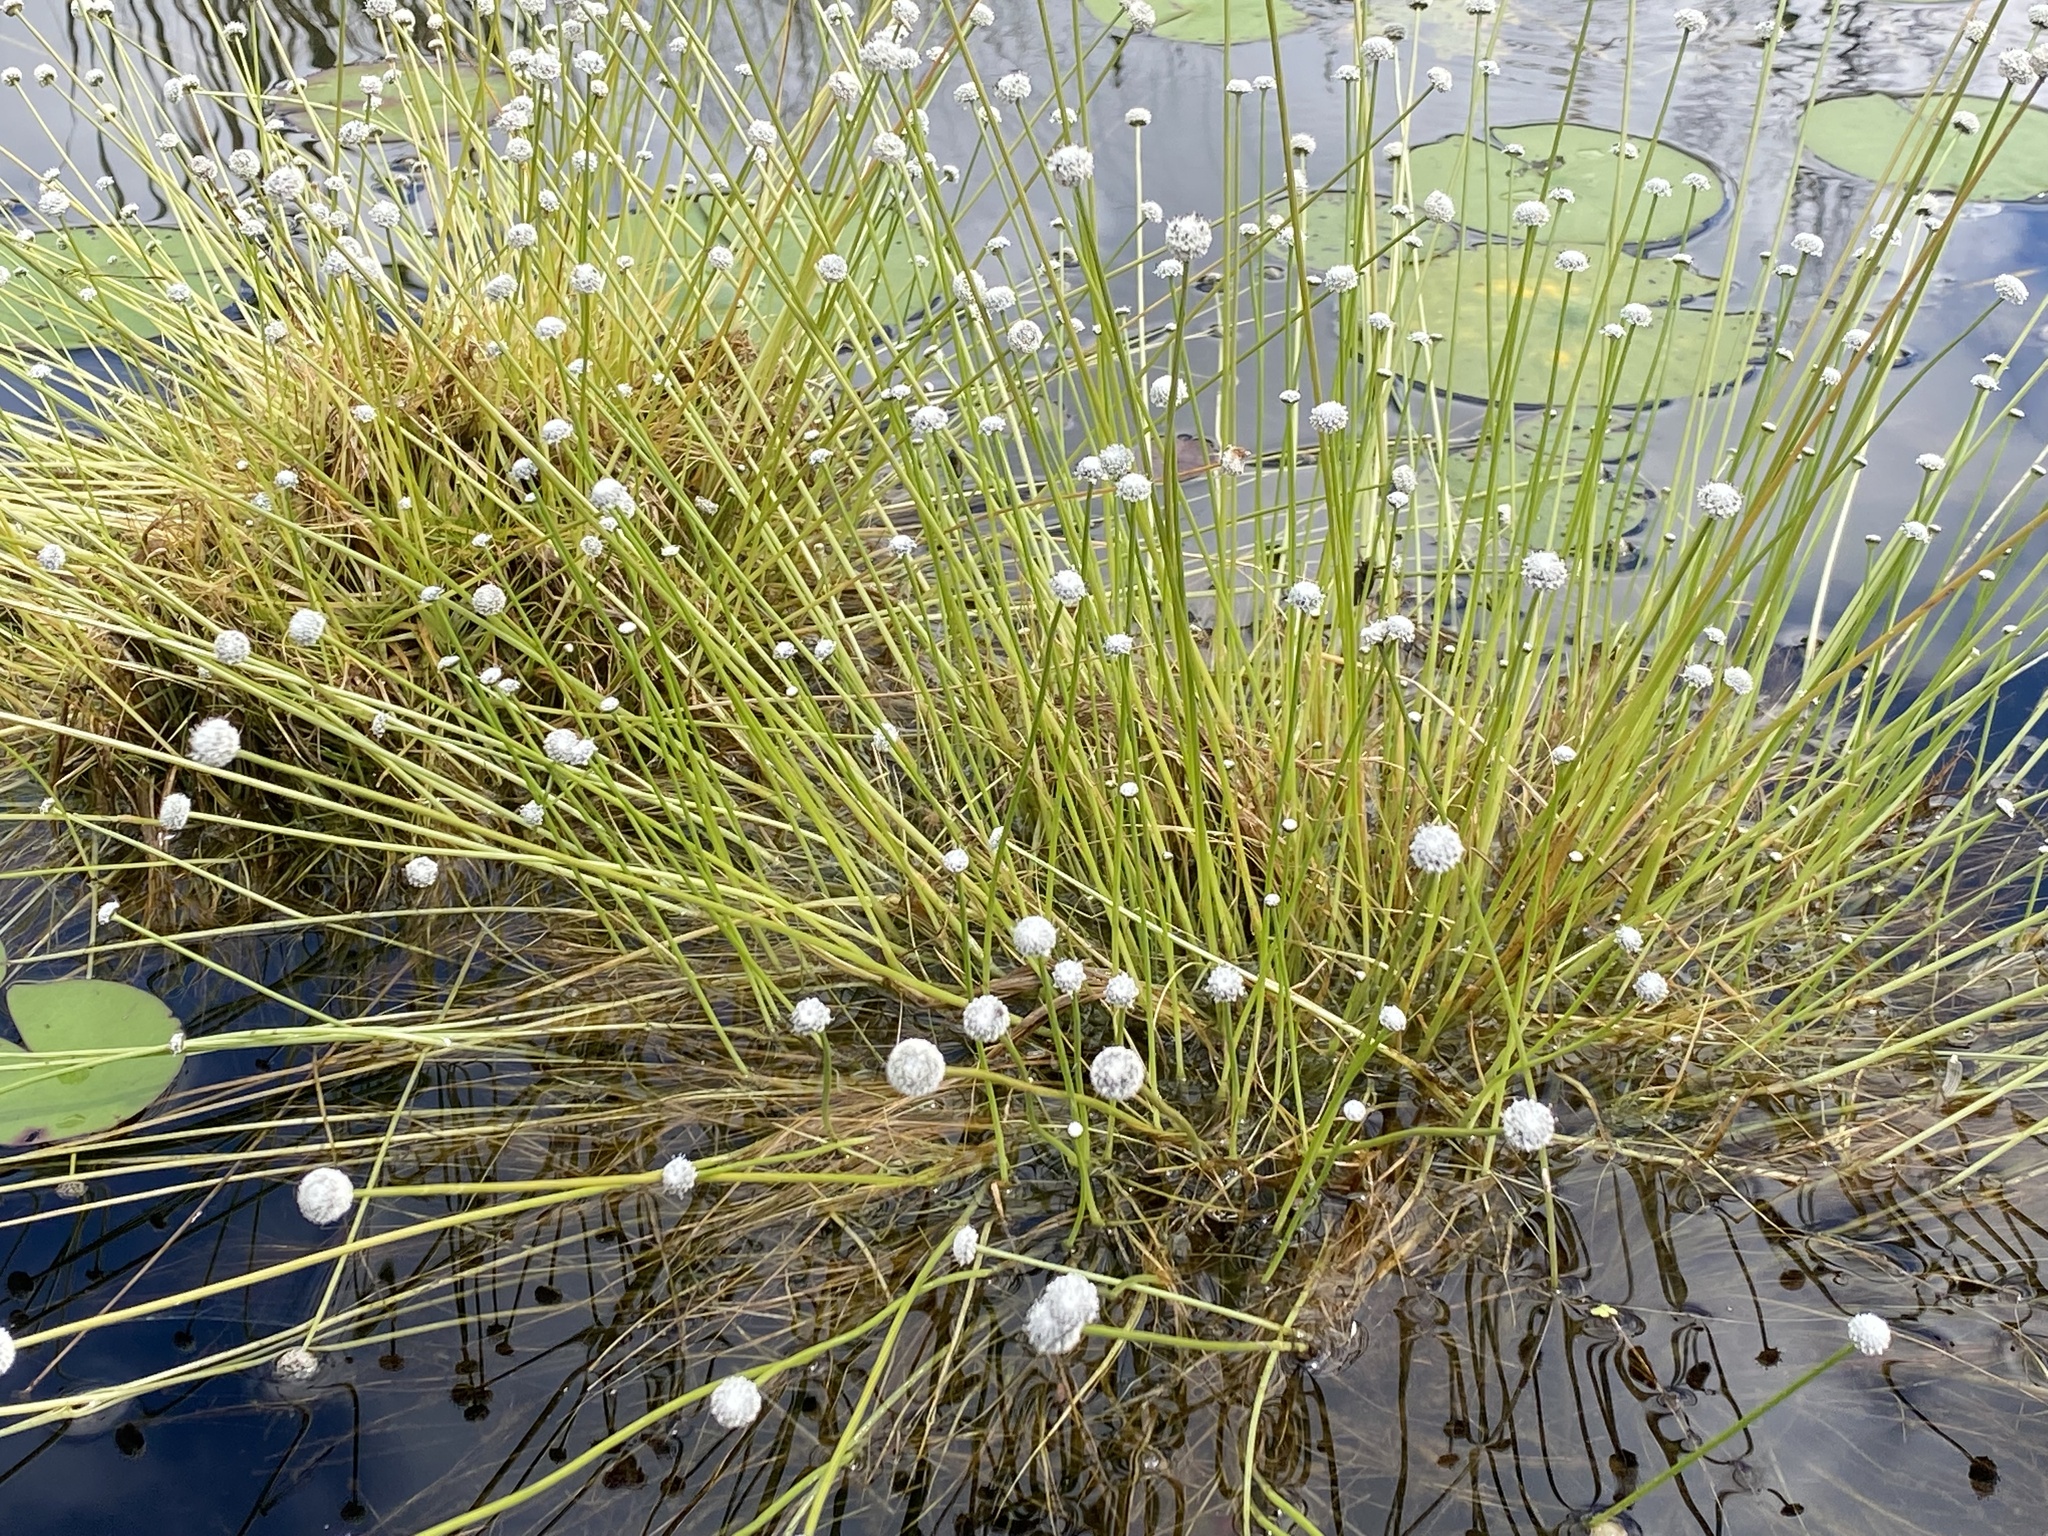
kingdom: Plantae
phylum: Tracheophyta
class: Liliopsida
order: Poales
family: Eriocaulaceae
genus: Eriocaulon
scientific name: Eriocaulon aquaticum
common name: Pipewort
